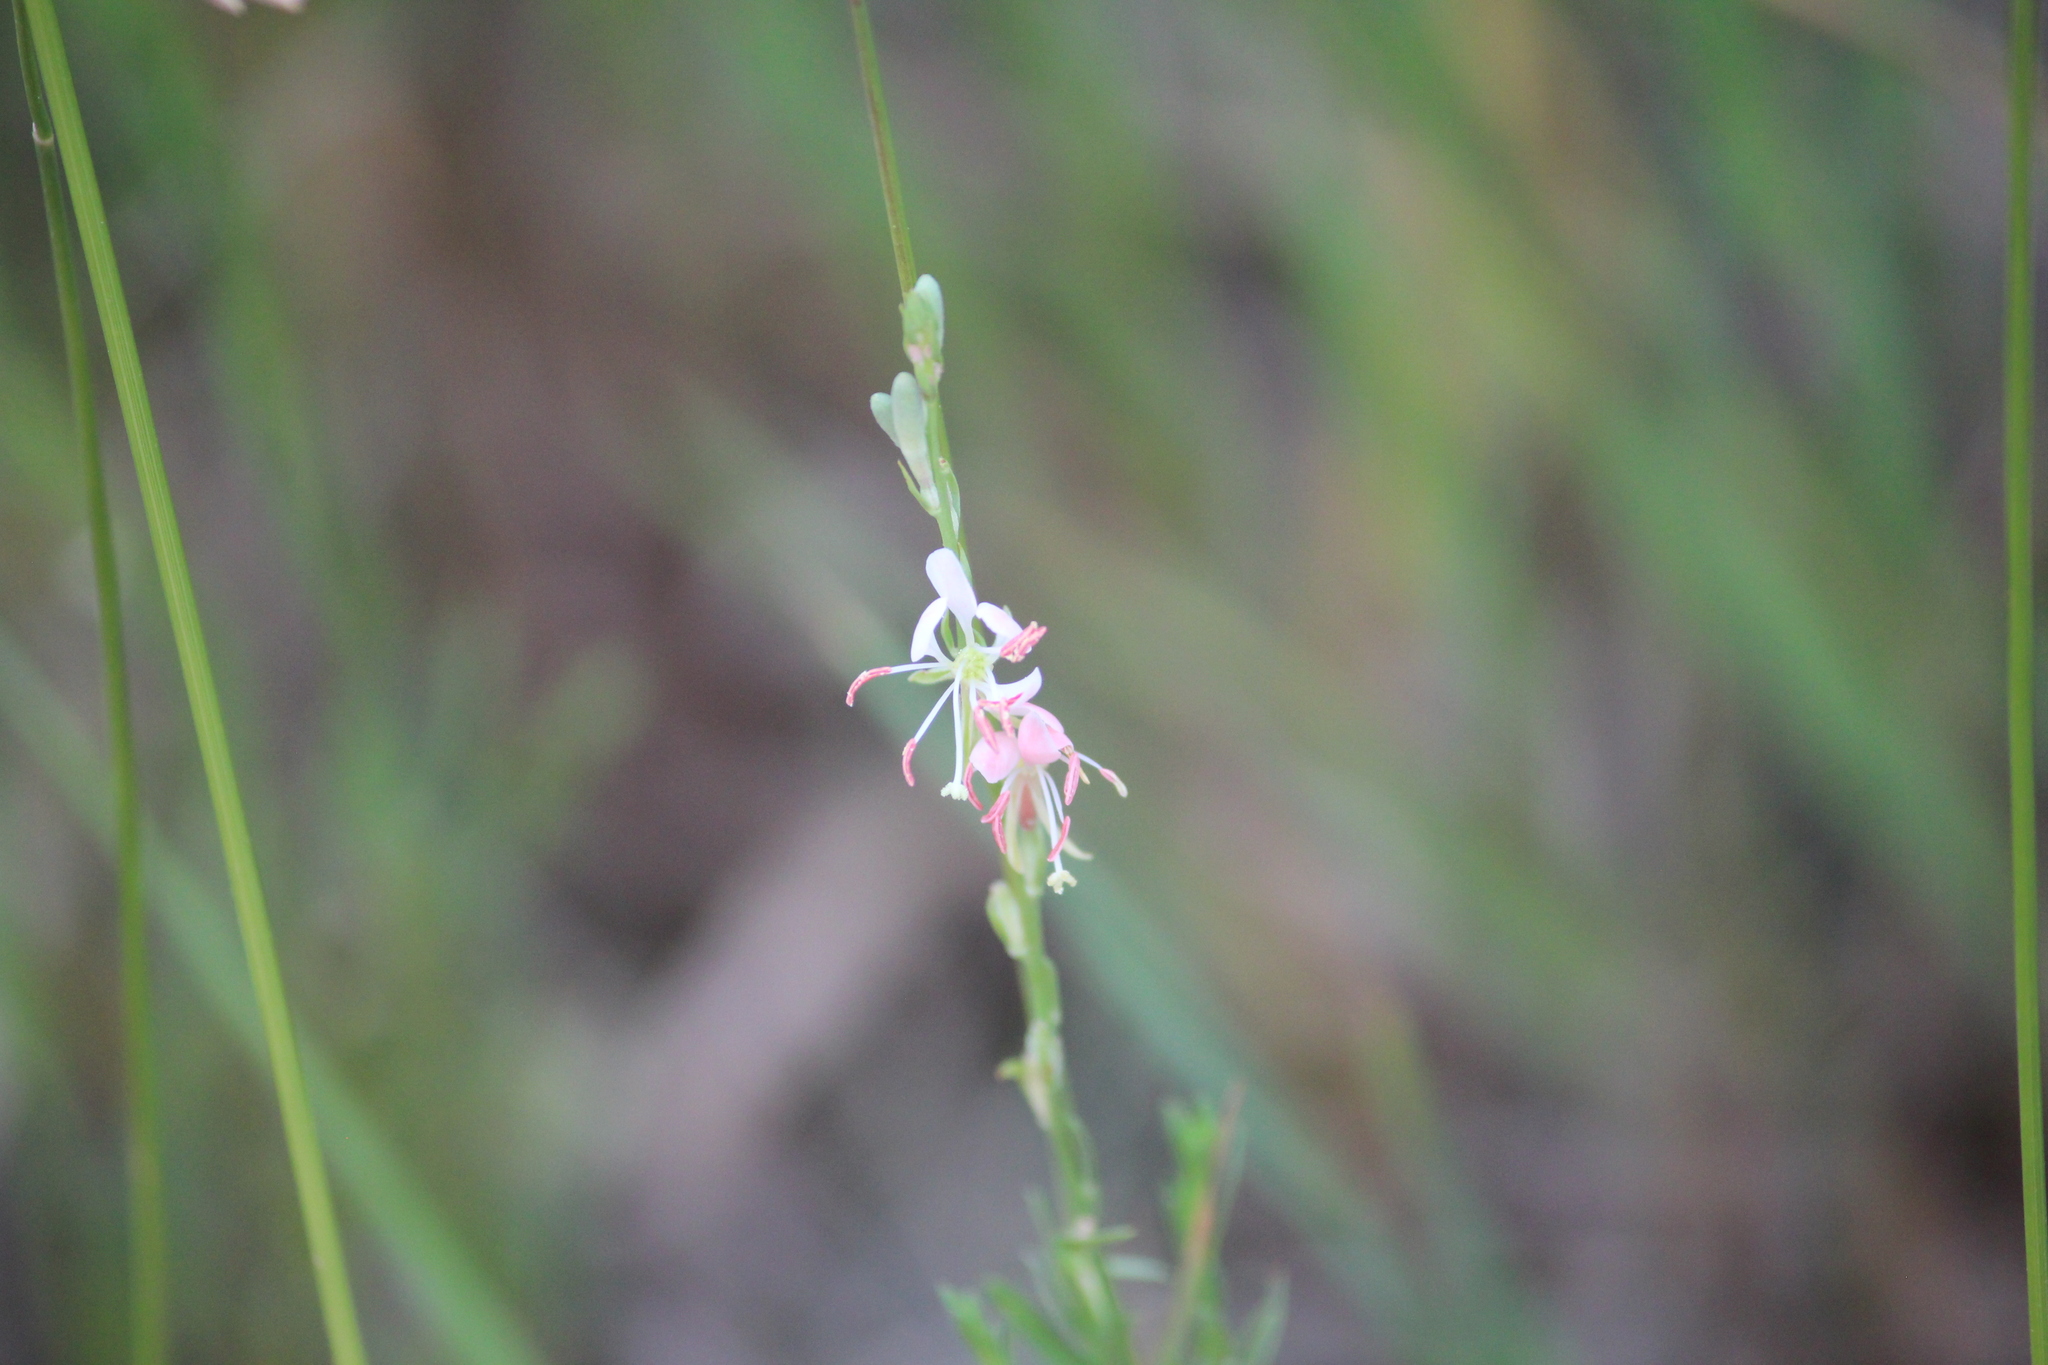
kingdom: Plantae
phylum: Tracheophyta
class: Magnoliopsida
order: Myrtales
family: Onagraceae
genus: Oenothera
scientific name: Oenothera suffrutescens
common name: Scarlet beeblossom
